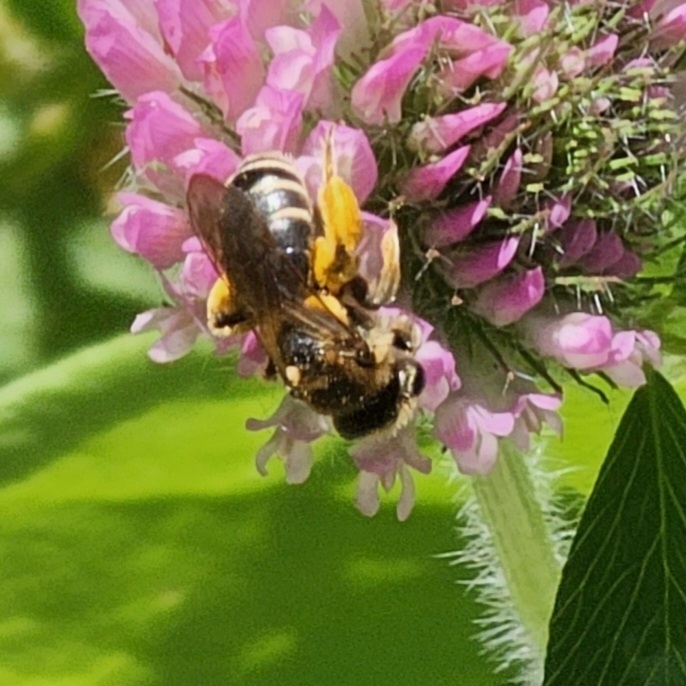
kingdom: Animalia
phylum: Arthropoda
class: Insecta
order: Hymenoptera
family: Andrenidae
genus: Andrena
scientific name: Andrena wilkella
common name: Wilke's mining bee
